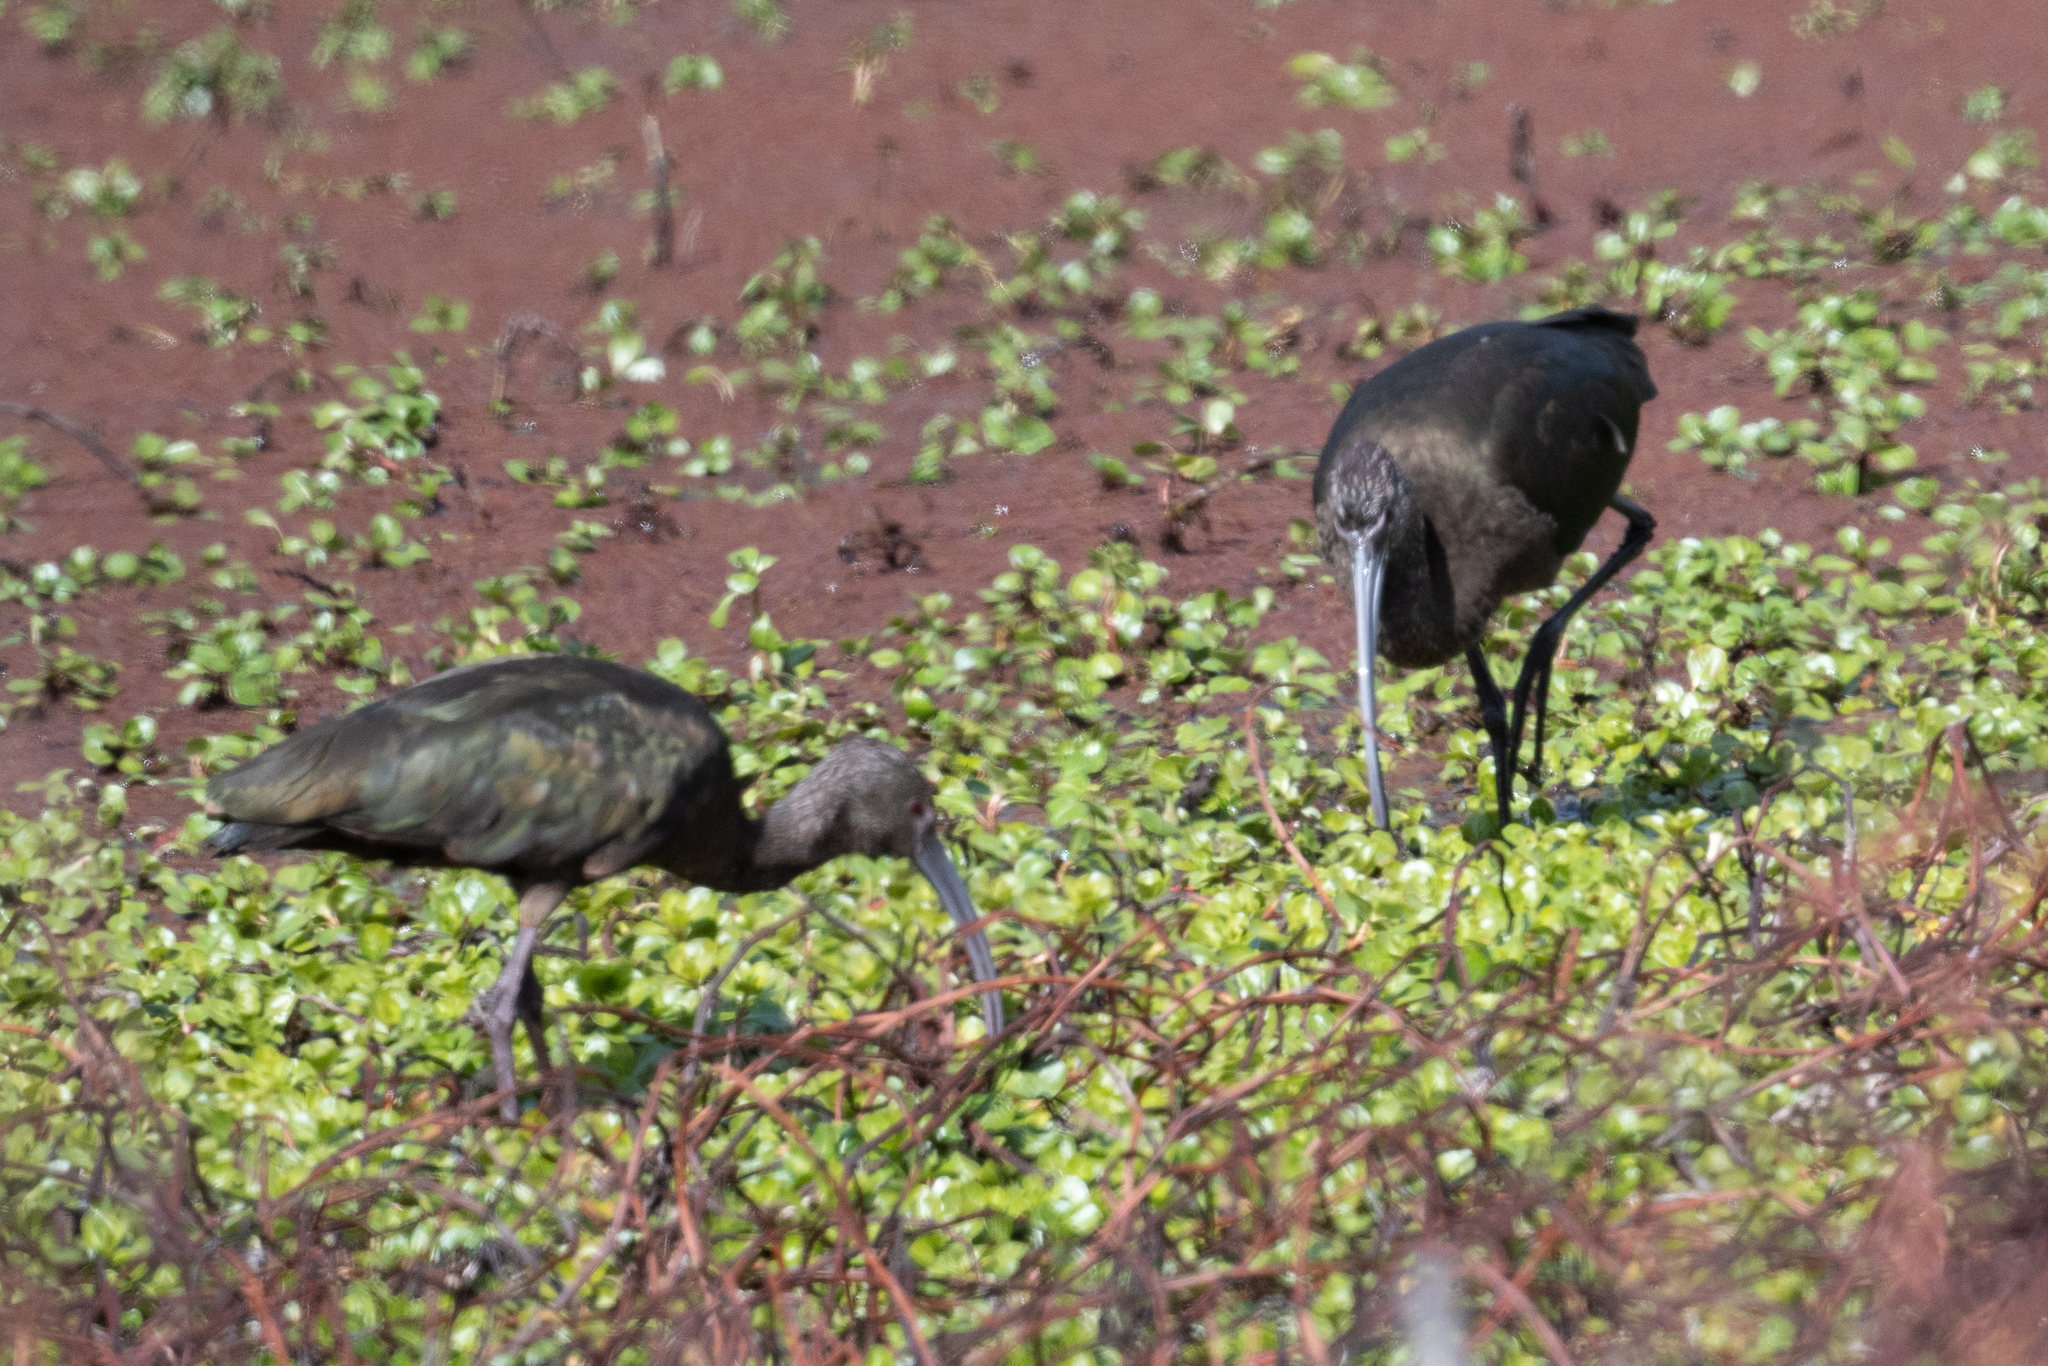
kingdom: Animalia
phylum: Chordata
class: Aves
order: Pelecaniformes
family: Threskiornithidae
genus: Plegadis
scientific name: Plegadis chihi
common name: White-faced ibis
